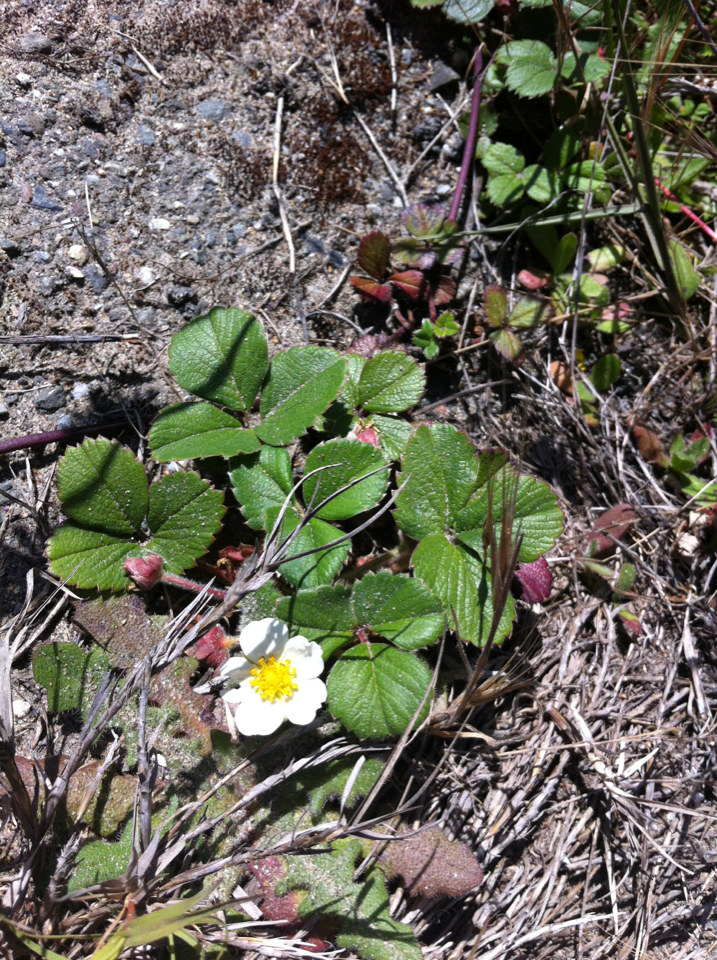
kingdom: Plantae
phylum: Tracheophyta
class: Magnoliopsida
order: Rosales
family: Rosaceae
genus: Fragaria
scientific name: Fragaria chiloensis
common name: Beach strawberry
